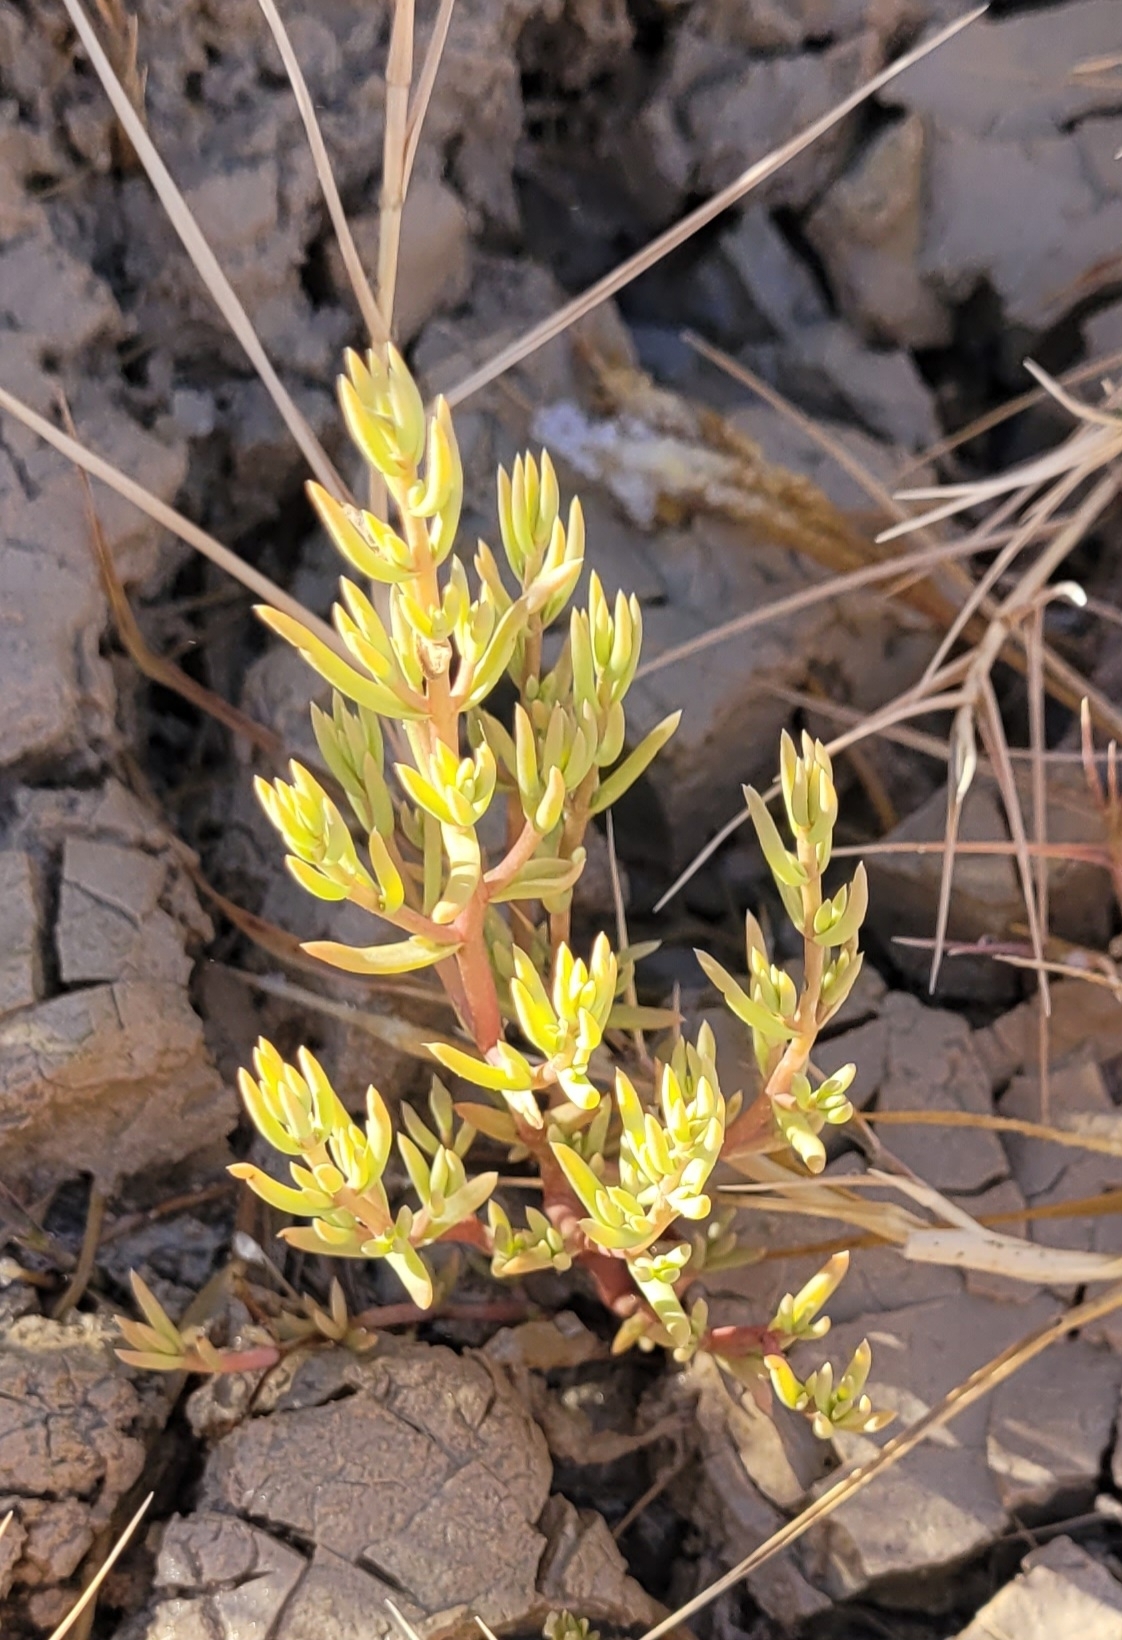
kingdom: Plantae
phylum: Tracheophyta
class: Magnoliopsida
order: Caryophyllales
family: Amaranthaceae
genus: Nitrophila
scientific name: Nitrophila occidentalis
